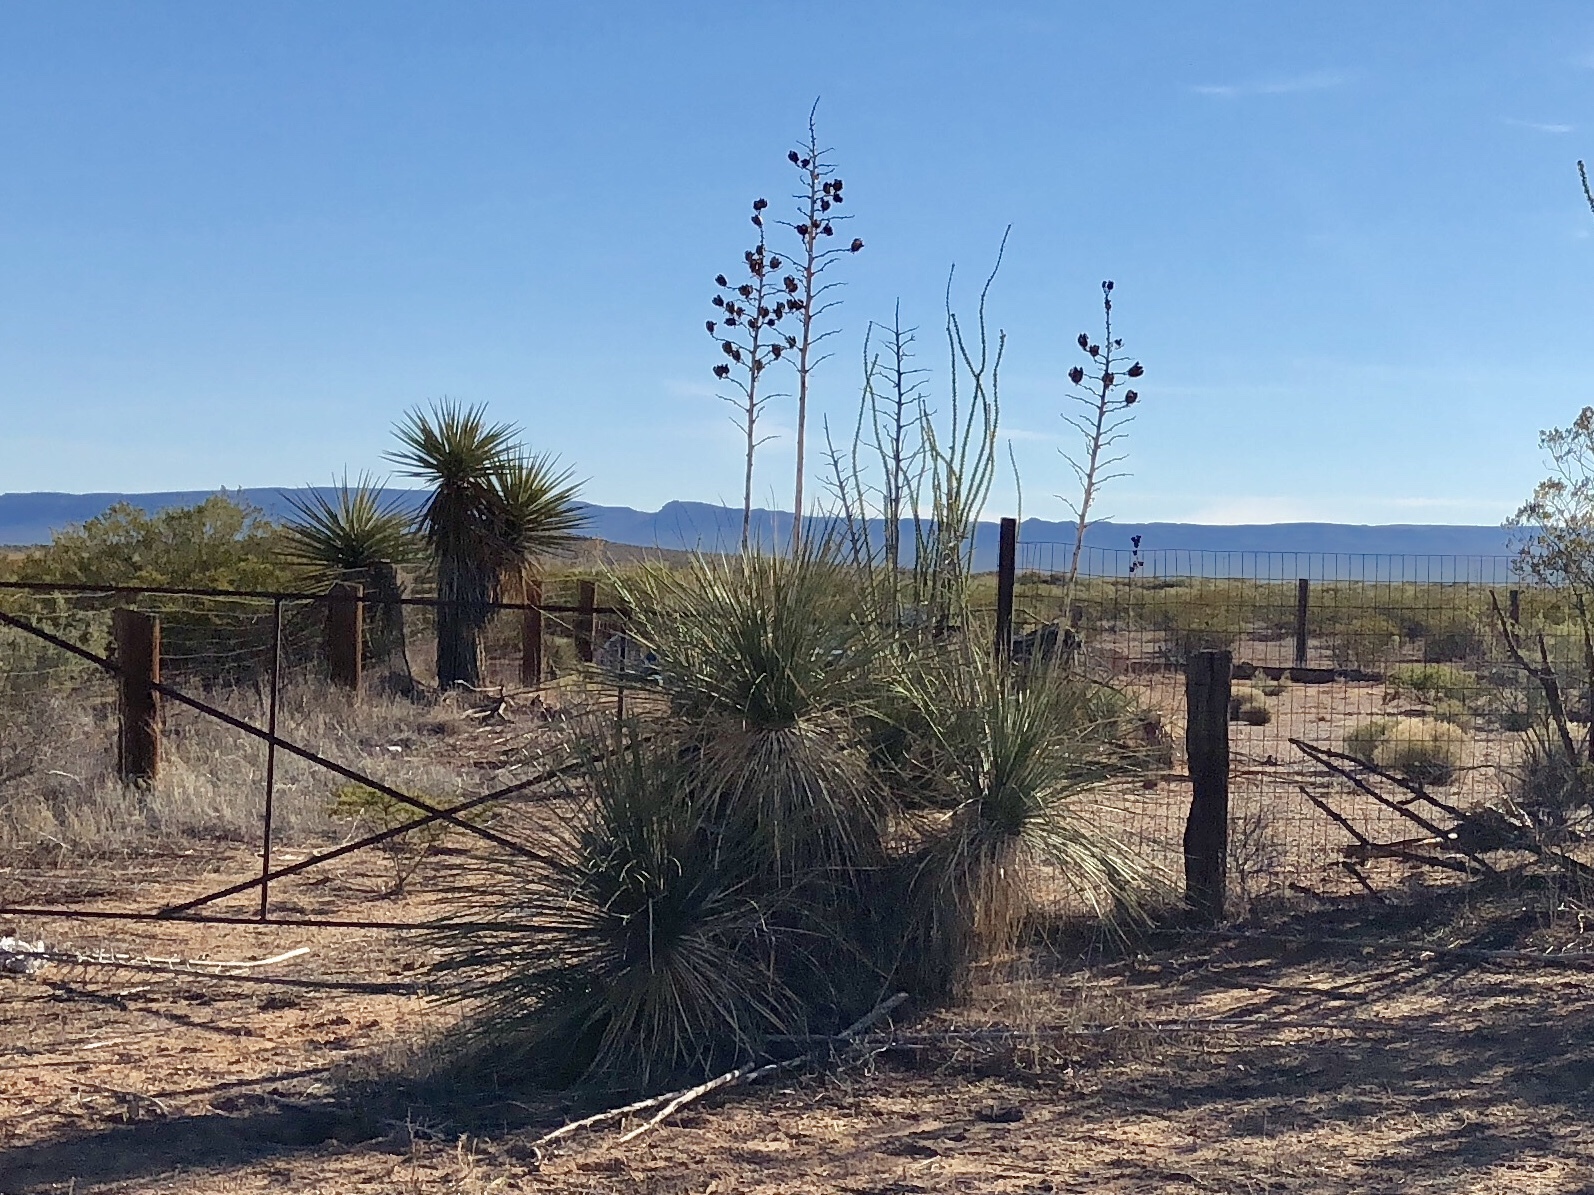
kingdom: Plantae
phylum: Tracheophyta
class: Liliopsida
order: Asparagales
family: Asparagaceae
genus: Yucca
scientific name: Yucca elata
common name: Palmella
